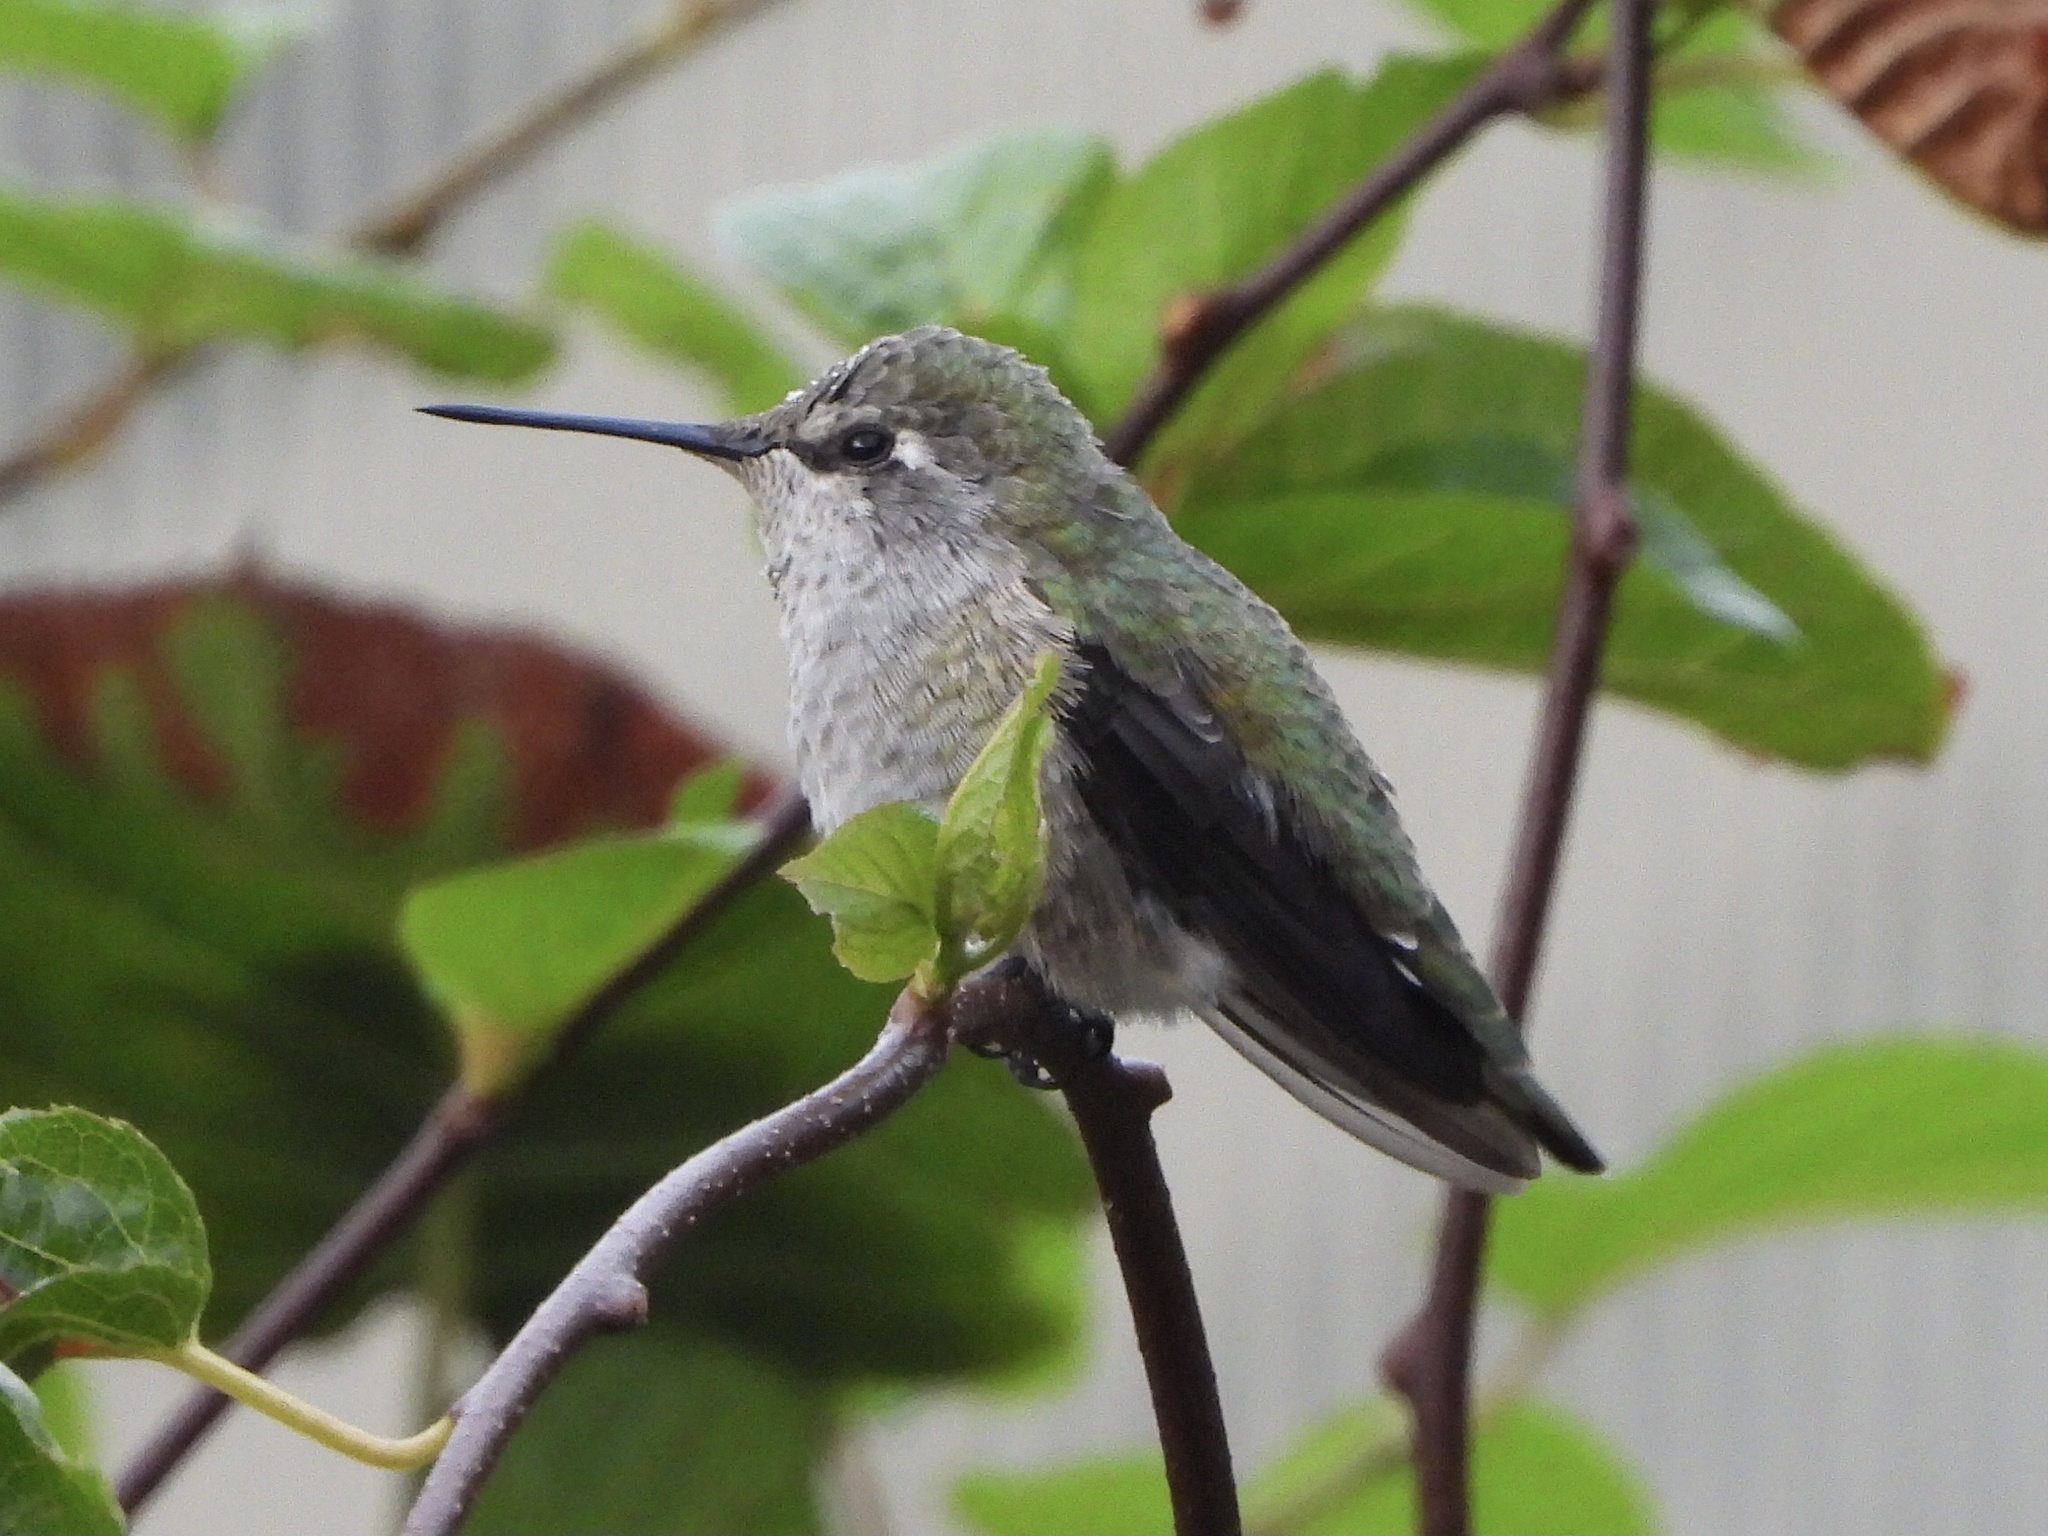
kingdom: Animalia
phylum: Chordata
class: Aves
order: Apodiformes
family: Trochilidae
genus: Calypte
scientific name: Calypte anna
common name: Anna's hummingbird
